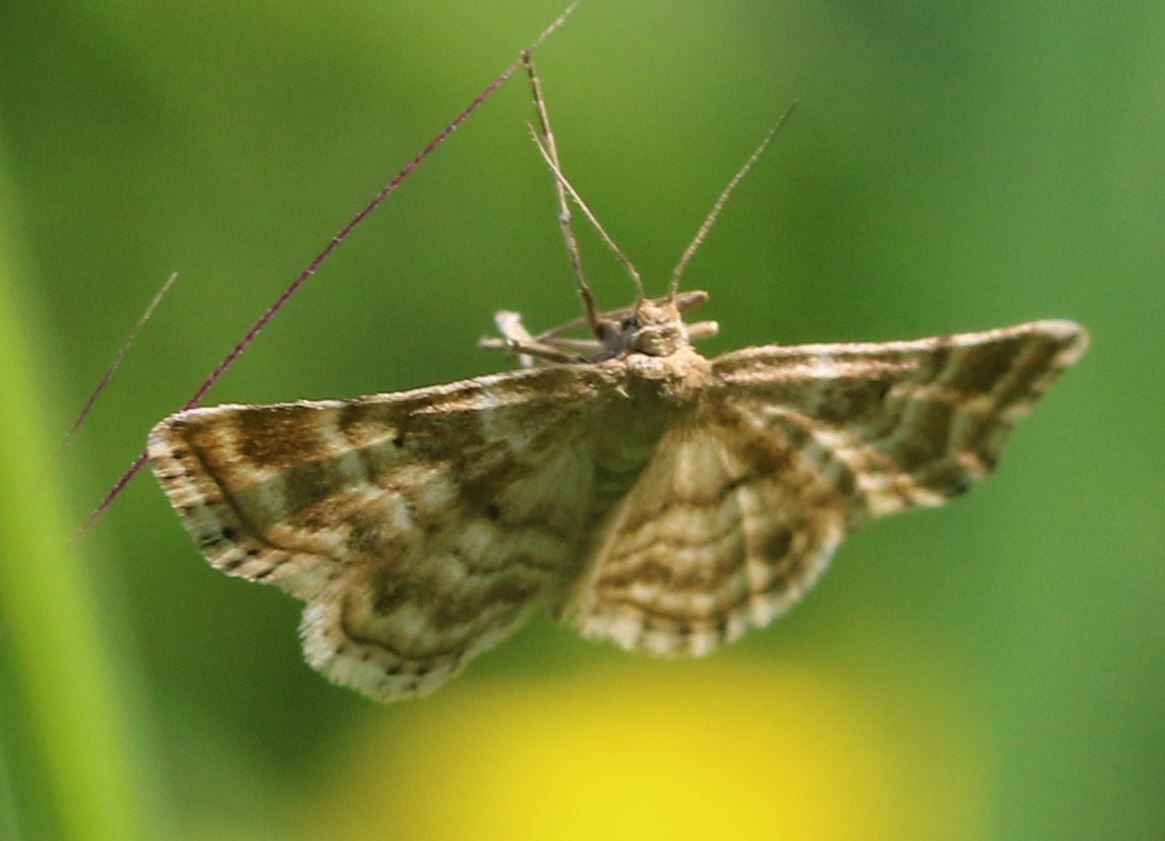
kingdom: Animalia
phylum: Arthropoda
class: Insecta
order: Lepidoptera
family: Geometridae
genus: Emmiltis
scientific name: Emmiltis pygmaearia
